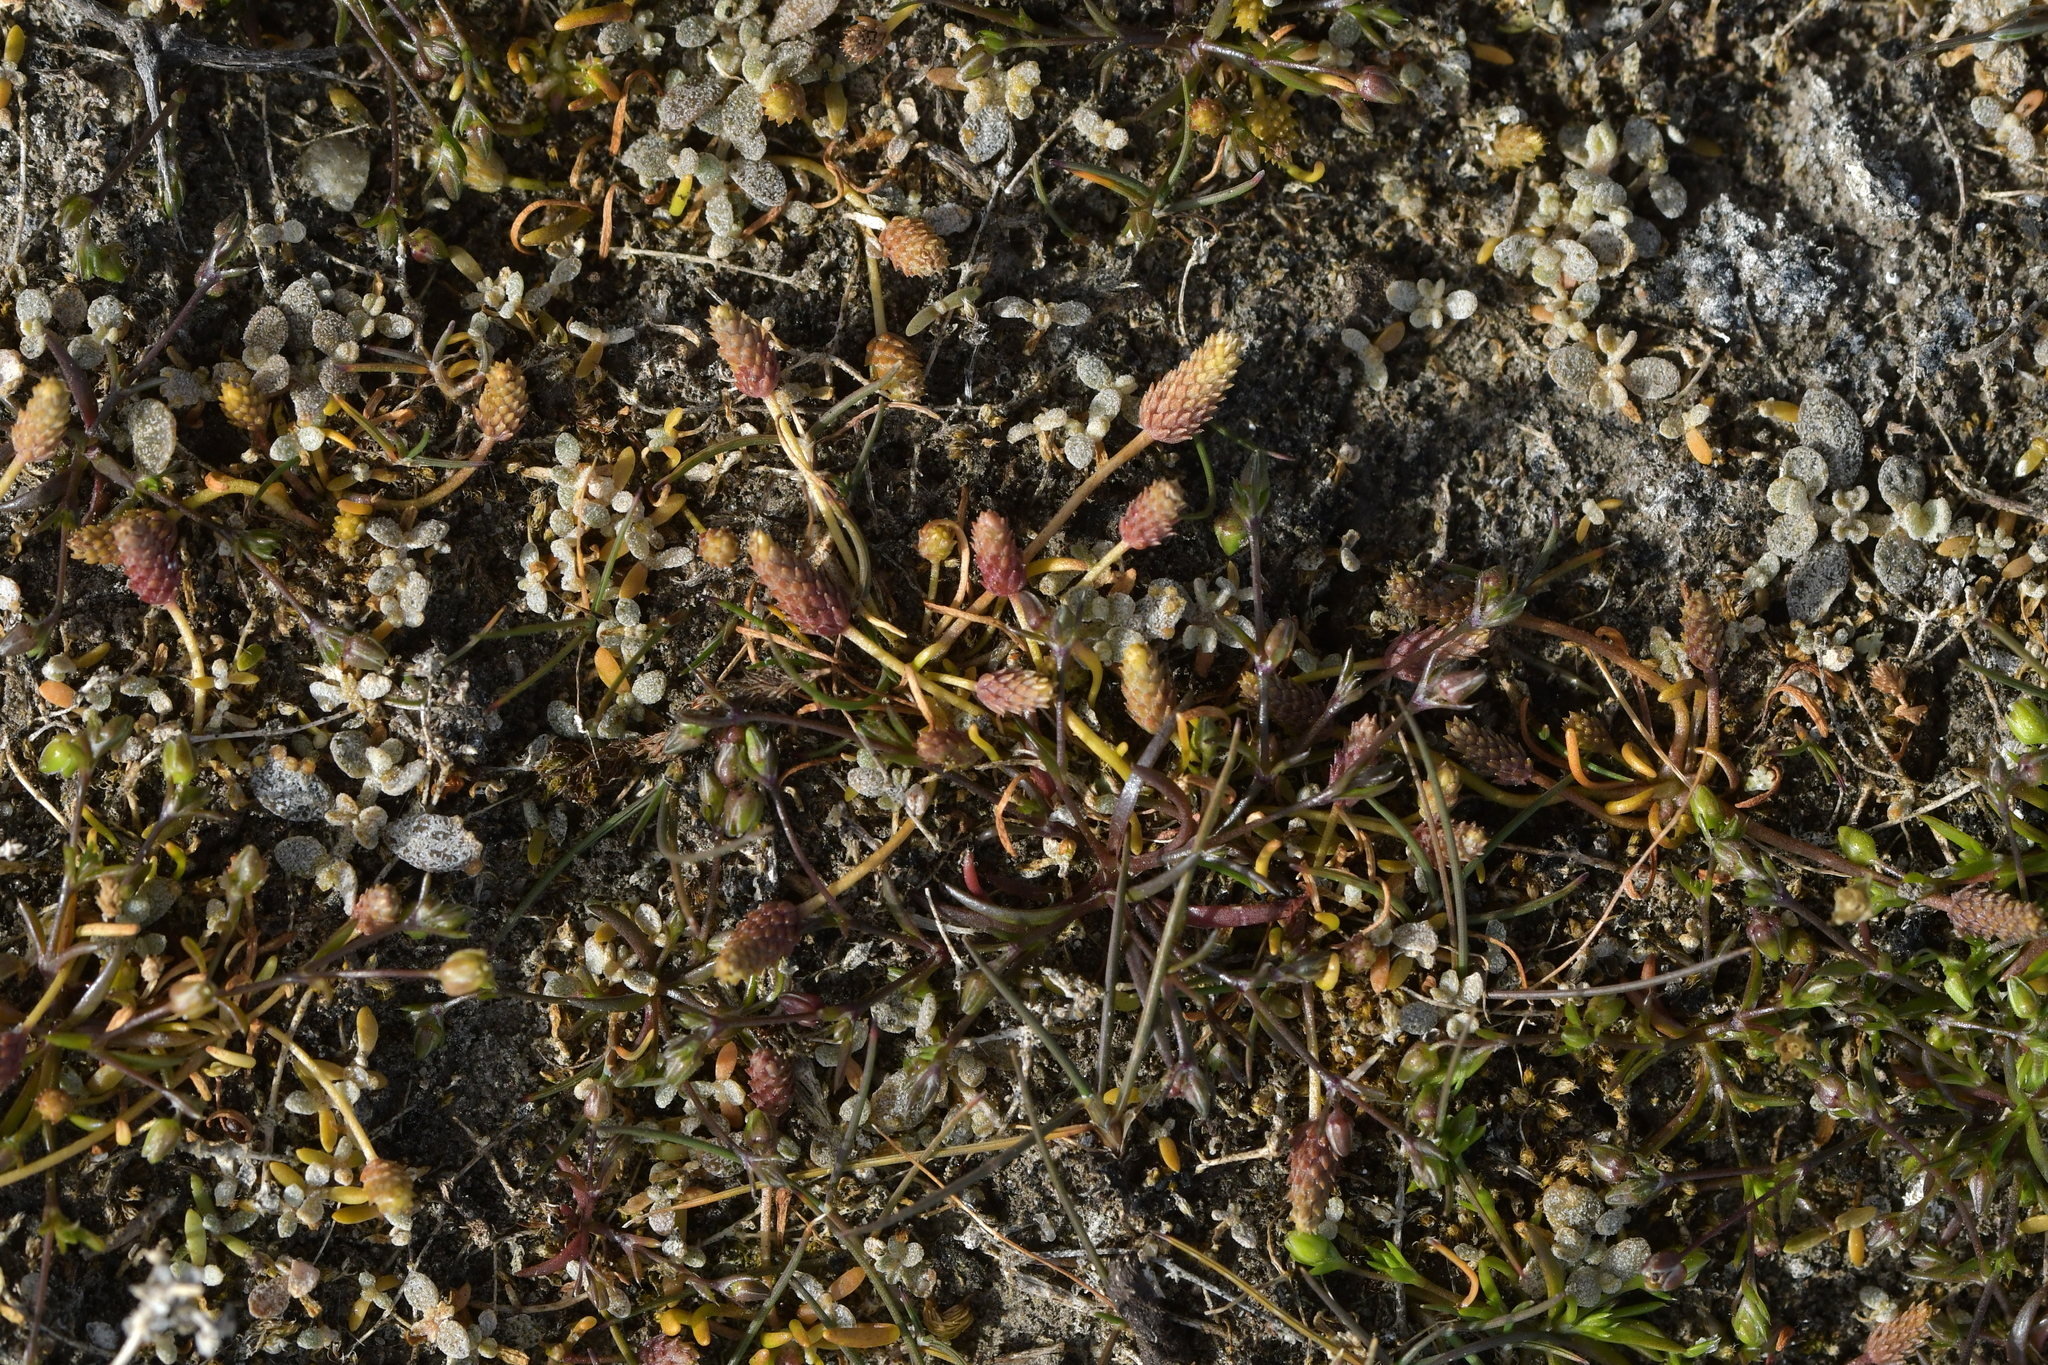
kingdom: Plantae
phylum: Tracheophyta
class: Magnoliopsida
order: Ranunculales
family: Ranunculaceae
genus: Myosurus
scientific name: Myosurus minimus
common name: Mousetail
